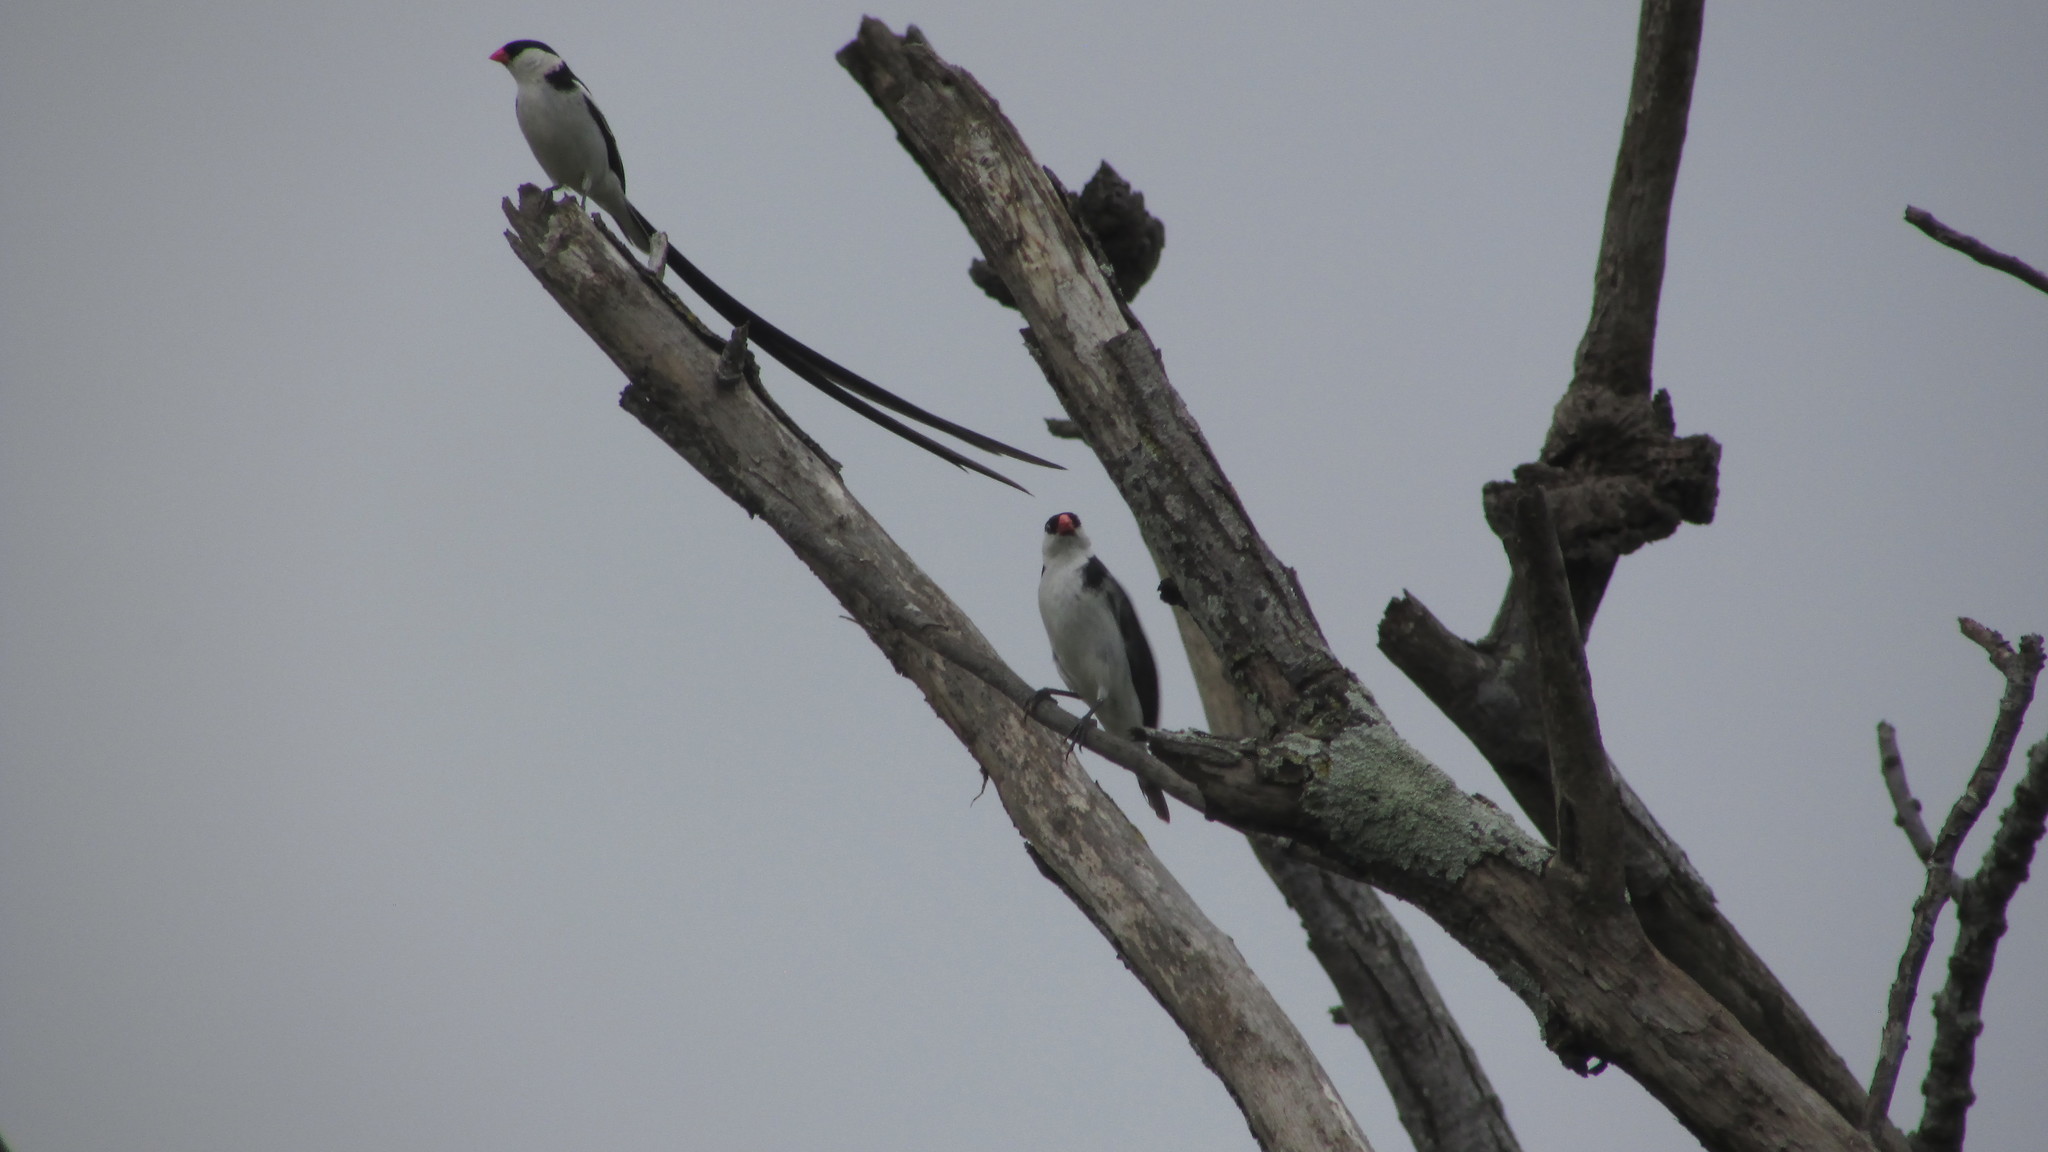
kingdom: Animalia
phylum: Chordata
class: Aves
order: Passeriformes
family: Viduidae
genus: Vidua
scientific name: Vidua macroura
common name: Pin-tailed whydah
